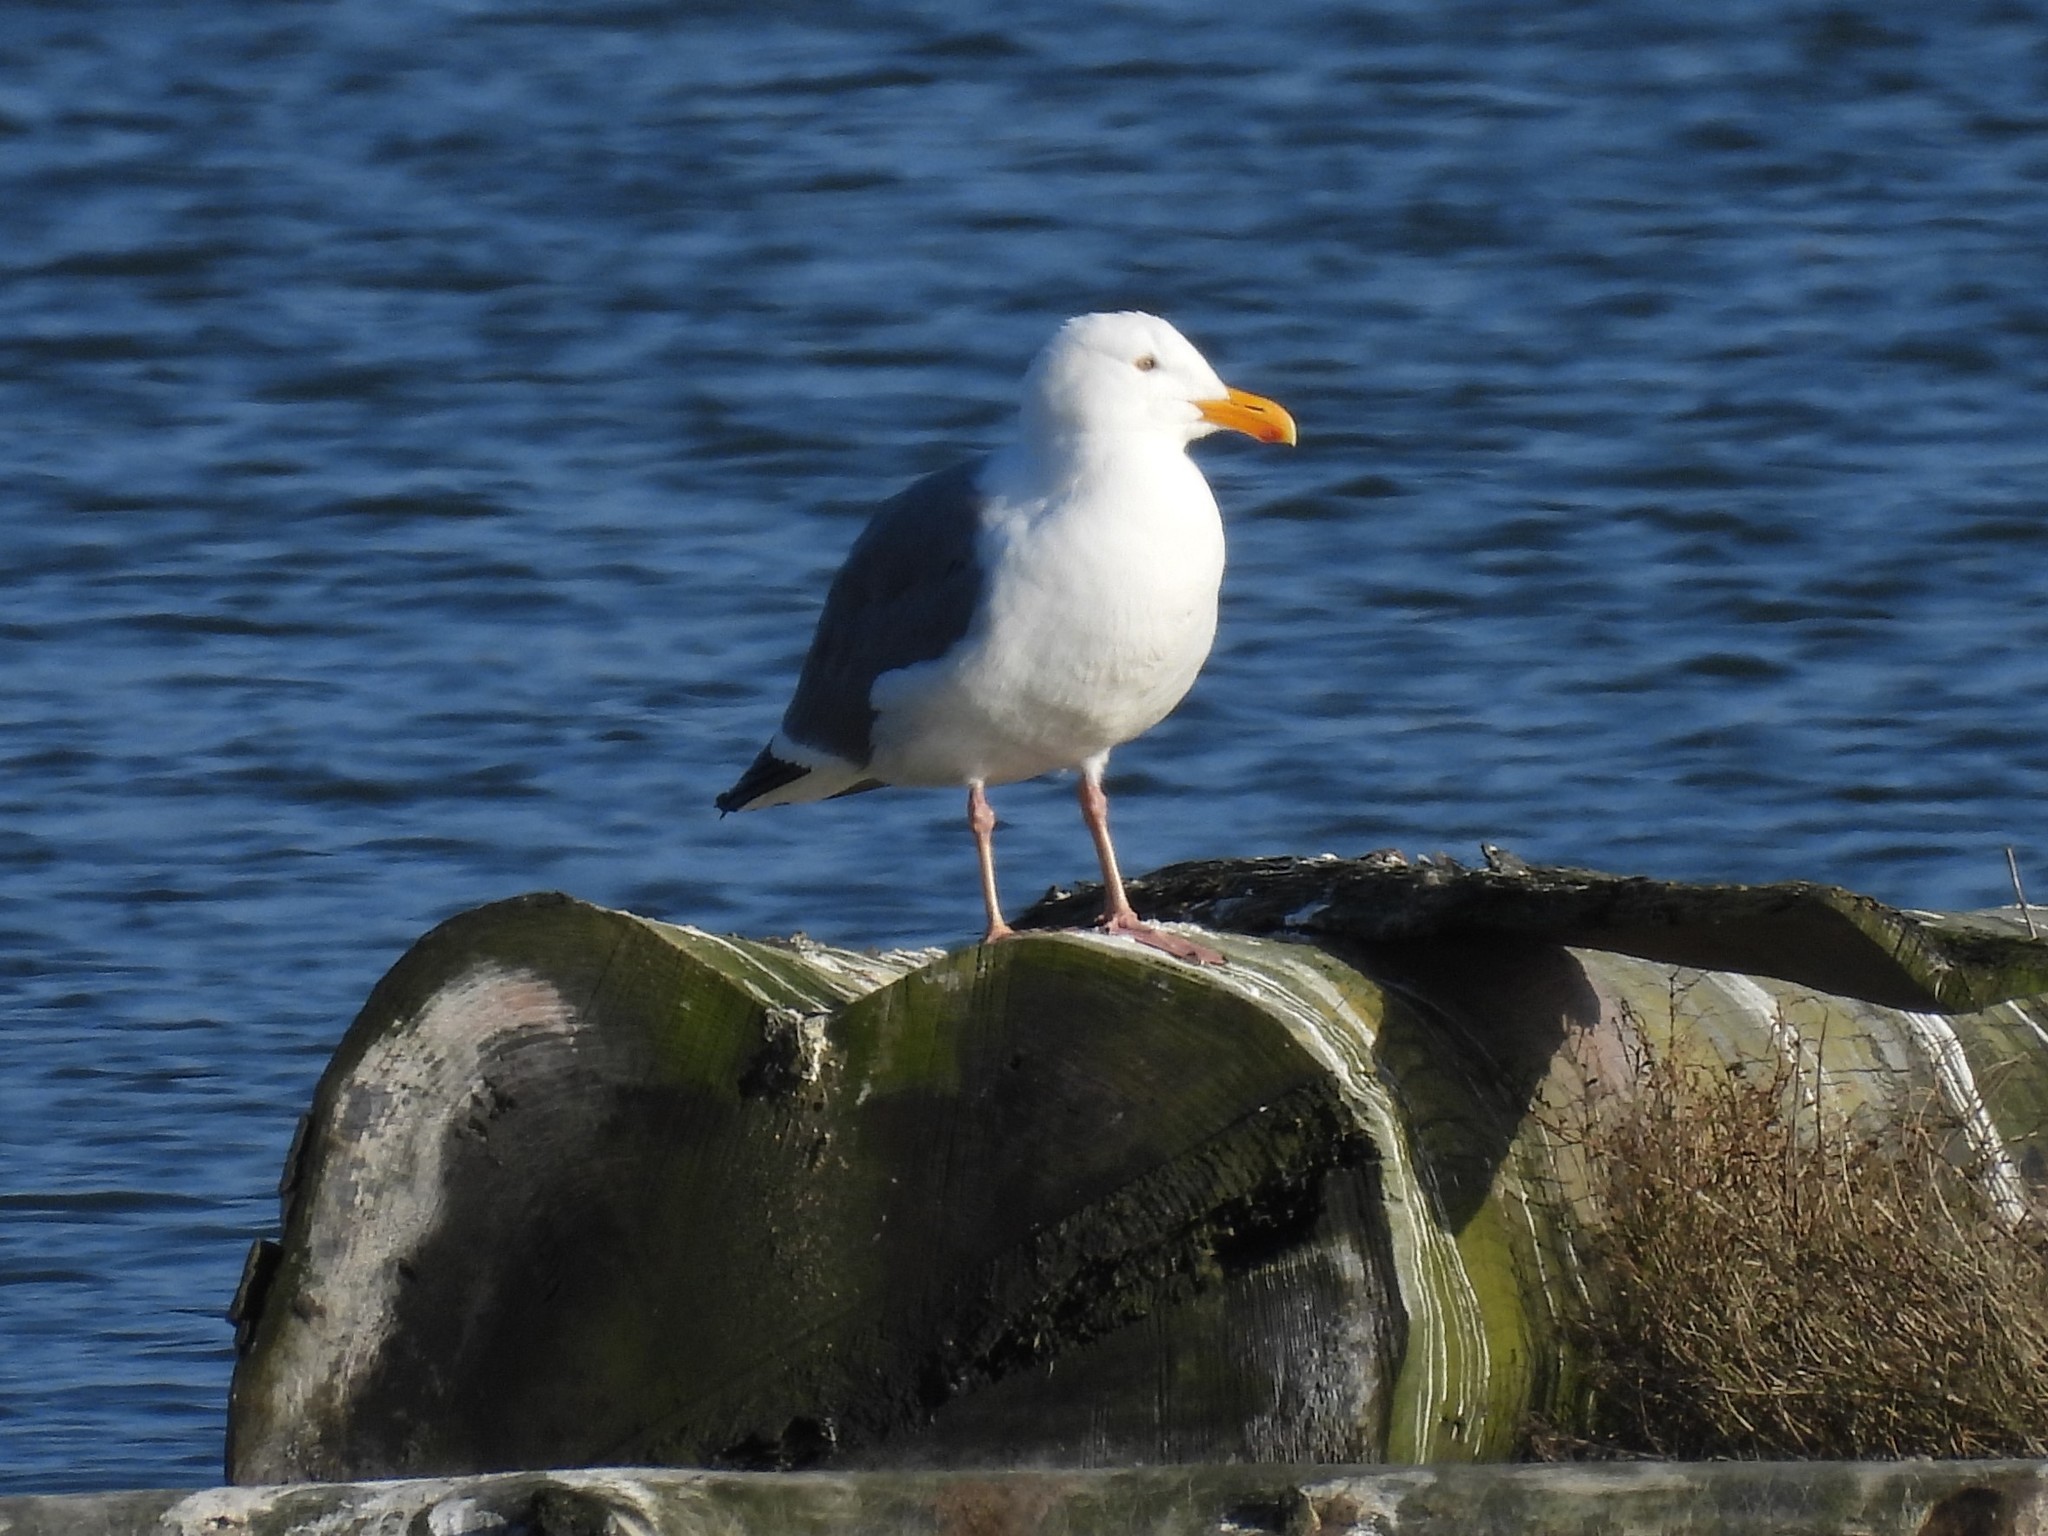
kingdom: Animalia
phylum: Chordata
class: Aves
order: Charadriiformes
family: Laridae
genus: Larus
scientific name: Larus occidentalis
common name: Western gull
